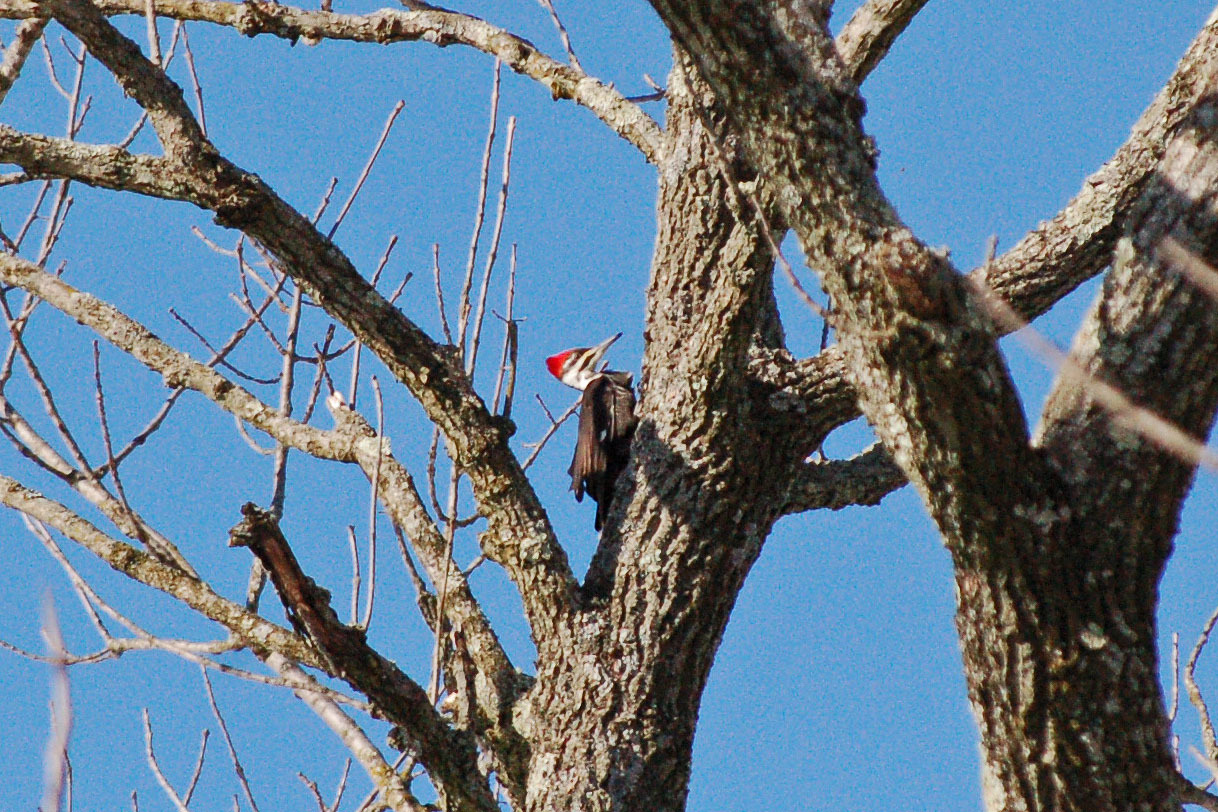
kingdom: Animalia
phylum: Chordata
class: Aves
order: Piciformes
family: Picidae
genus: Dryocopus
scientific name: Dryocopus pileatus
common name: Pileated woodpecker
